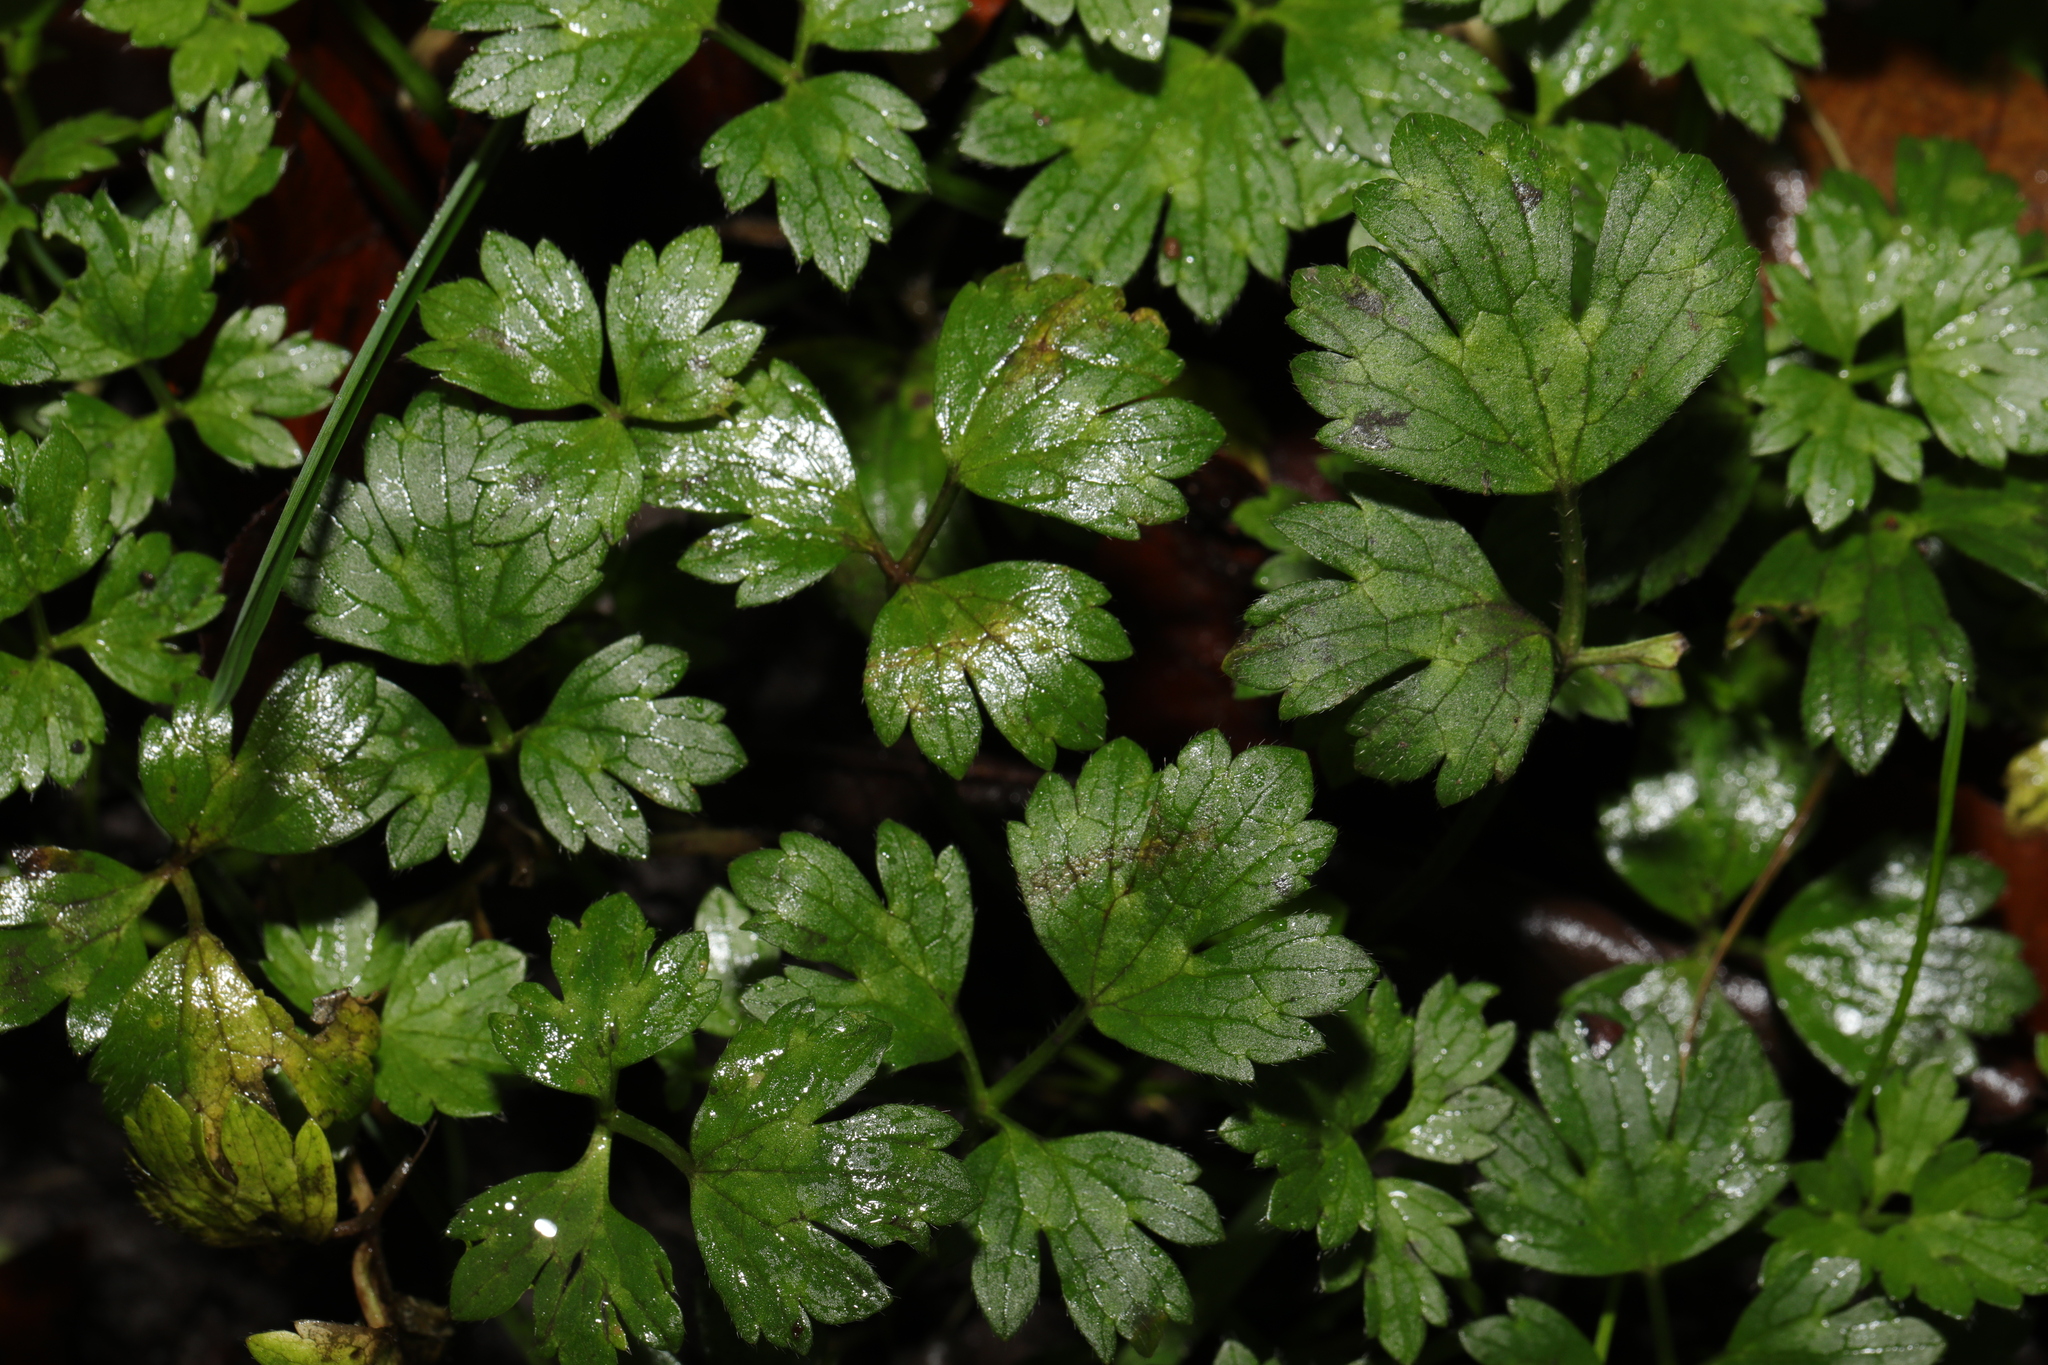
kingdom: Plantae
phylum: Tracheophyta
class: Magnoliopsida
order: Ranunculales
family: Ranunculaceae
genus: Ranunculus
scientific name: Ranunculus repens
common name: Creeping buttercup
